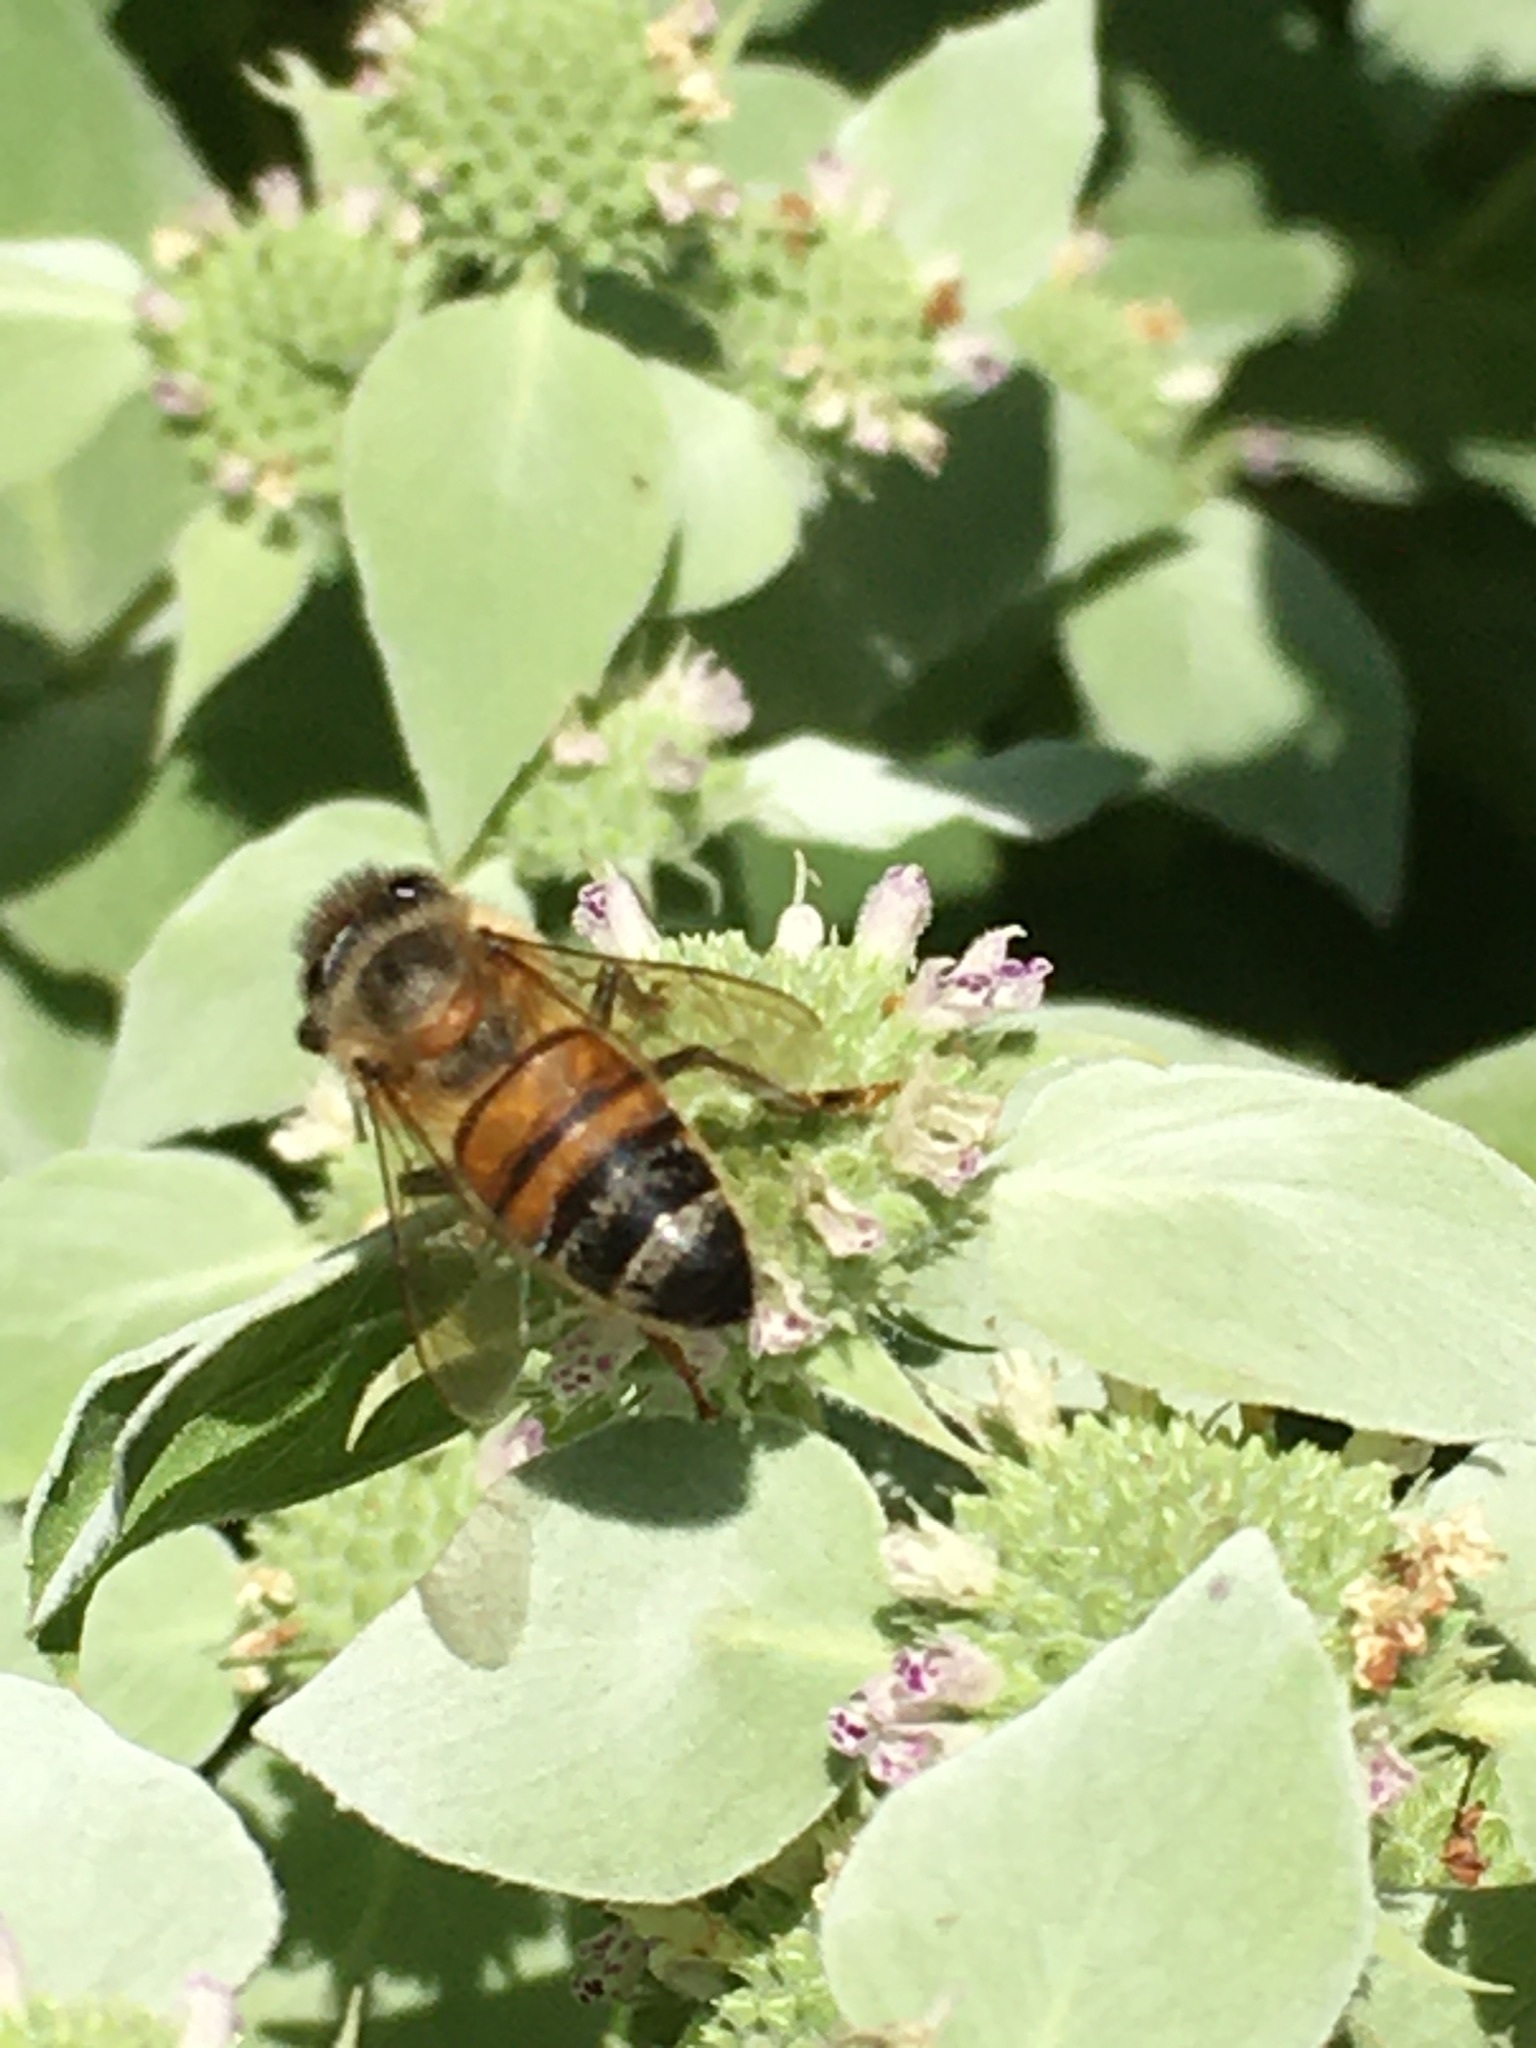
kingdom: Animalia
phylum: Arthropoda
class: Insecta
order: Hymenoptera
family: Apidae
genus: Apis
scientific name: Apis mellifera
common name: Honey bee
